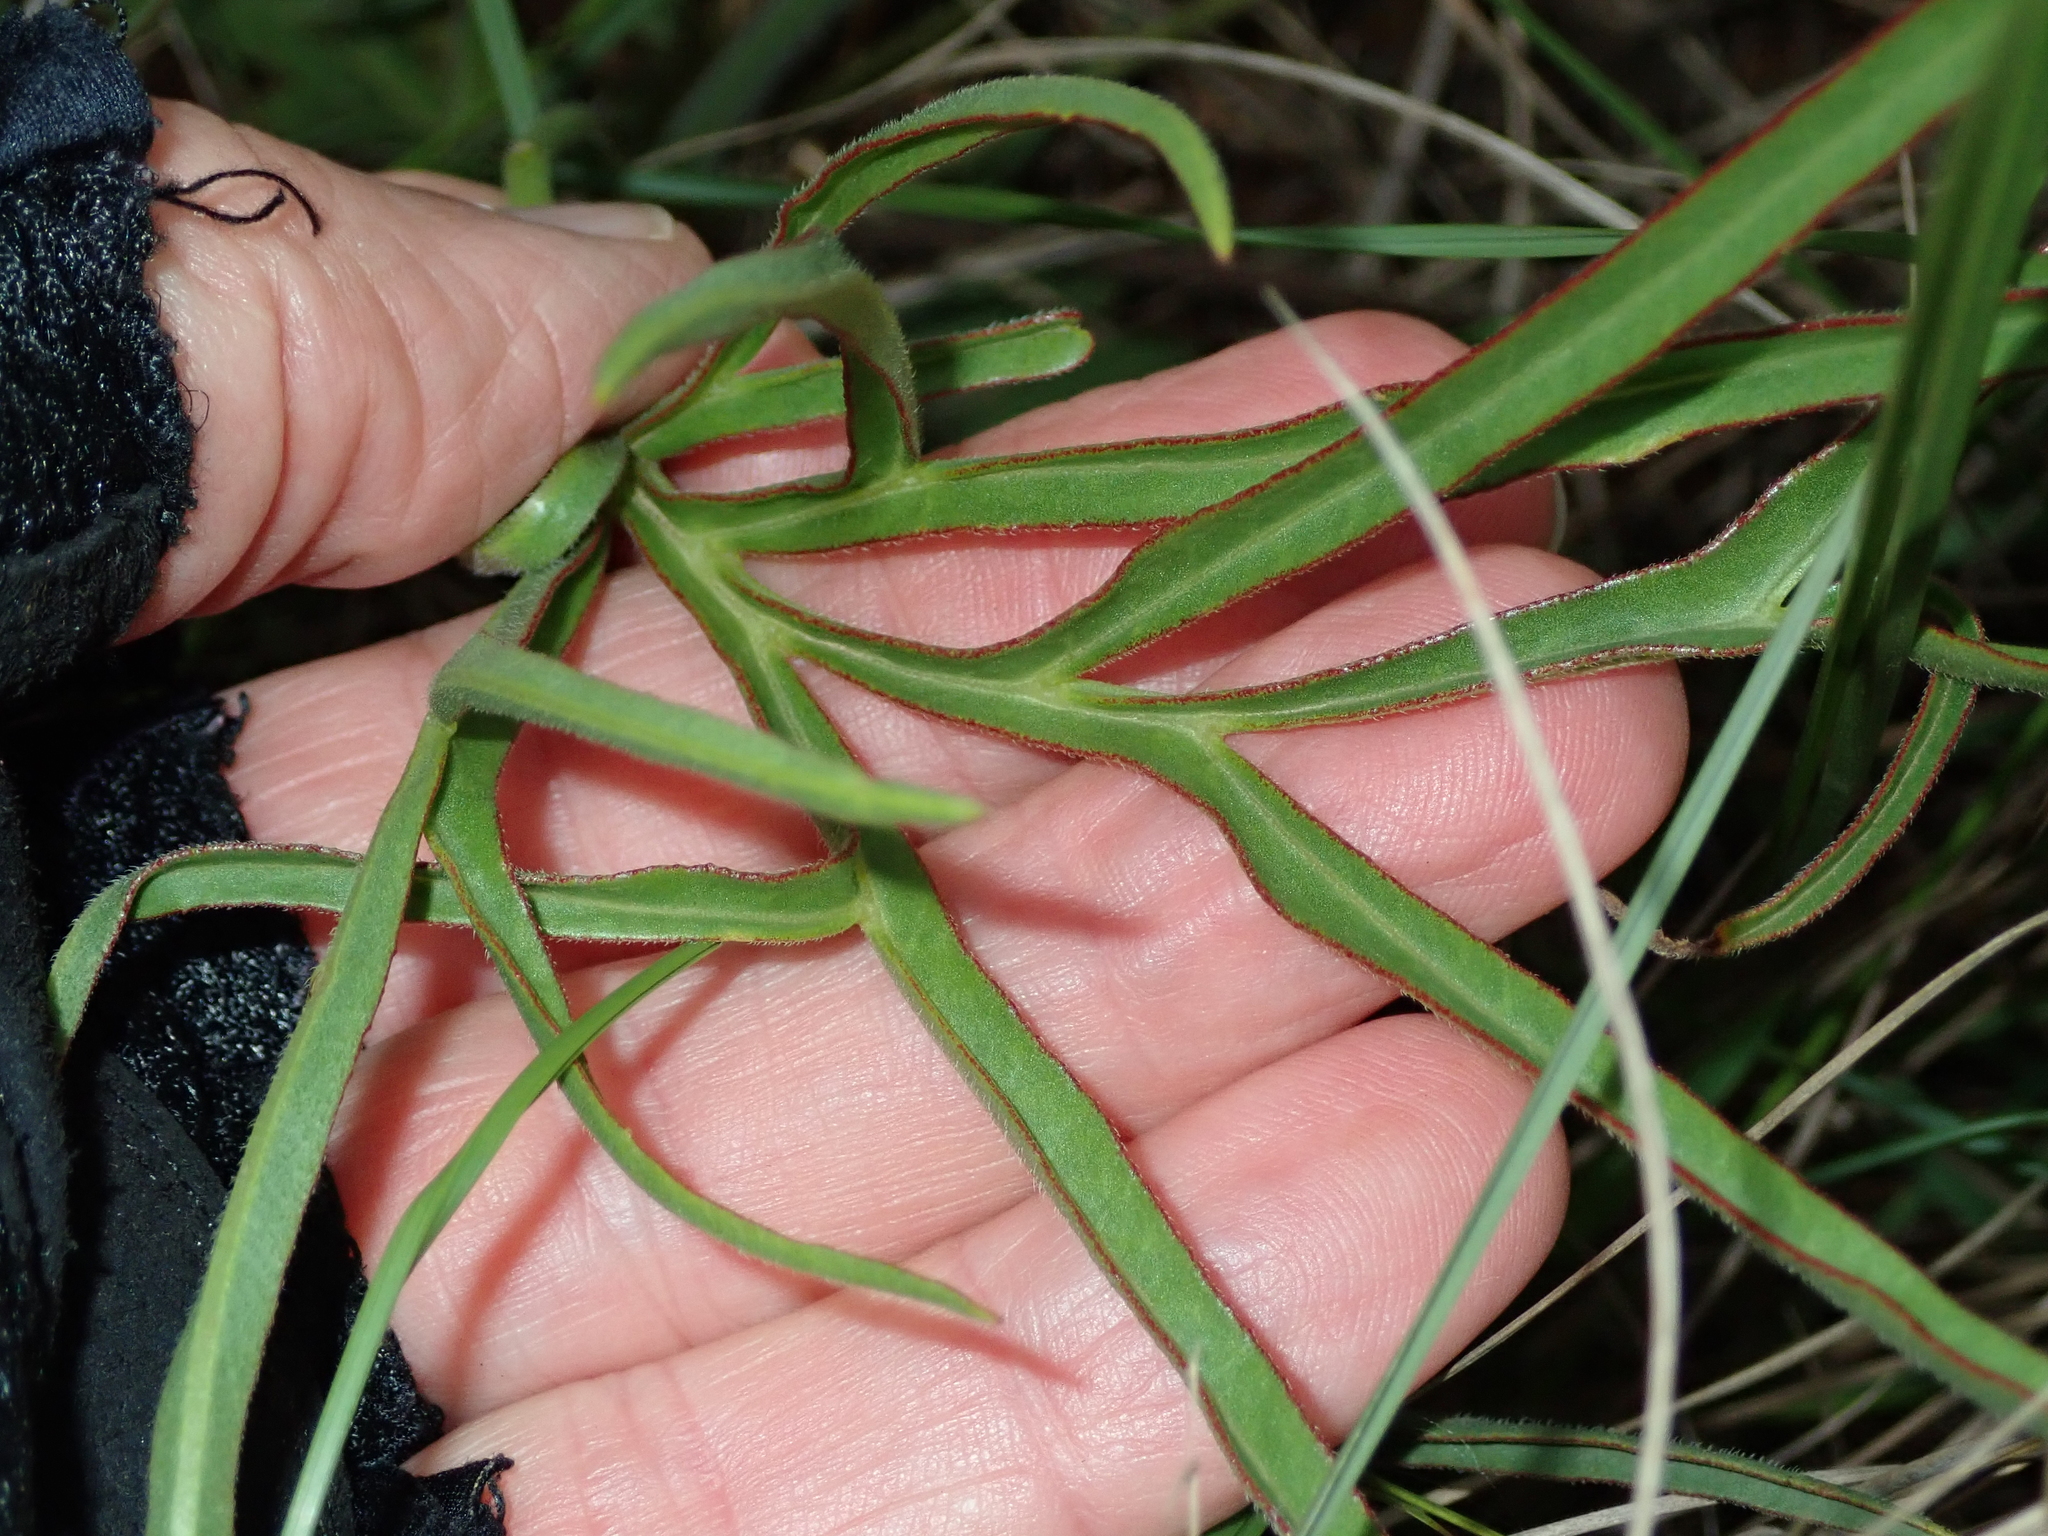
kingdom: Plantae
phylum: Tracheophyta
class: Magnoliopsida
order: Geraniales
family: Geraniaceae
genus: Pelargonium
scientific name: Pelargonium luridum
